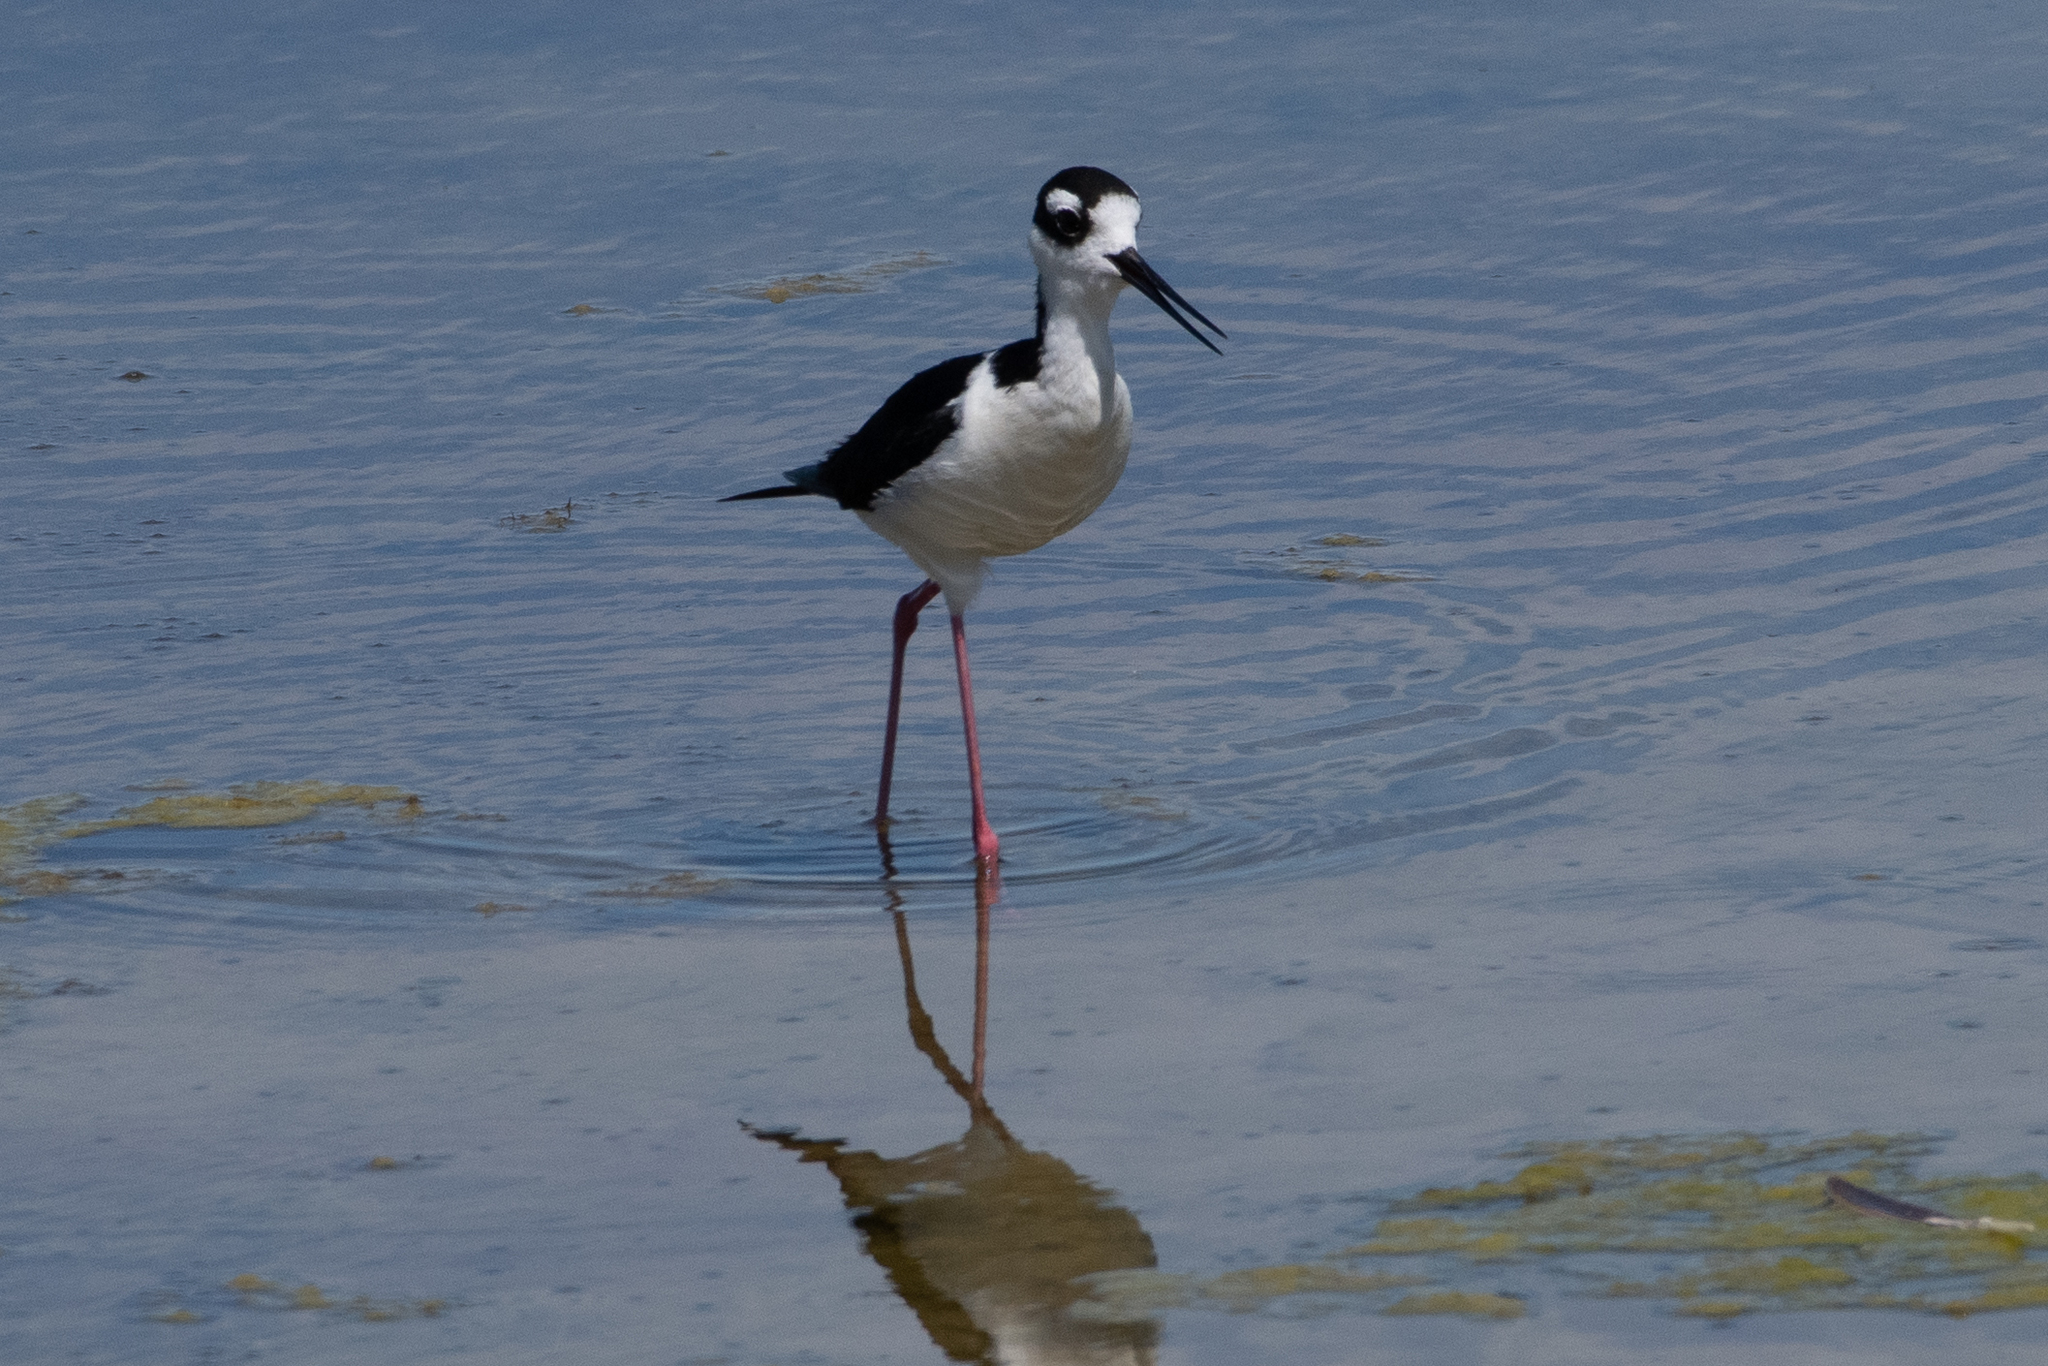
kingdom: Animalia
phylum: Chordata
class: Aves
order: Charadriiformes
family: Recurvirostridae
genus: Himantopus
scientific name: Himantopus mexicanus
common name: Black-necked stilt
